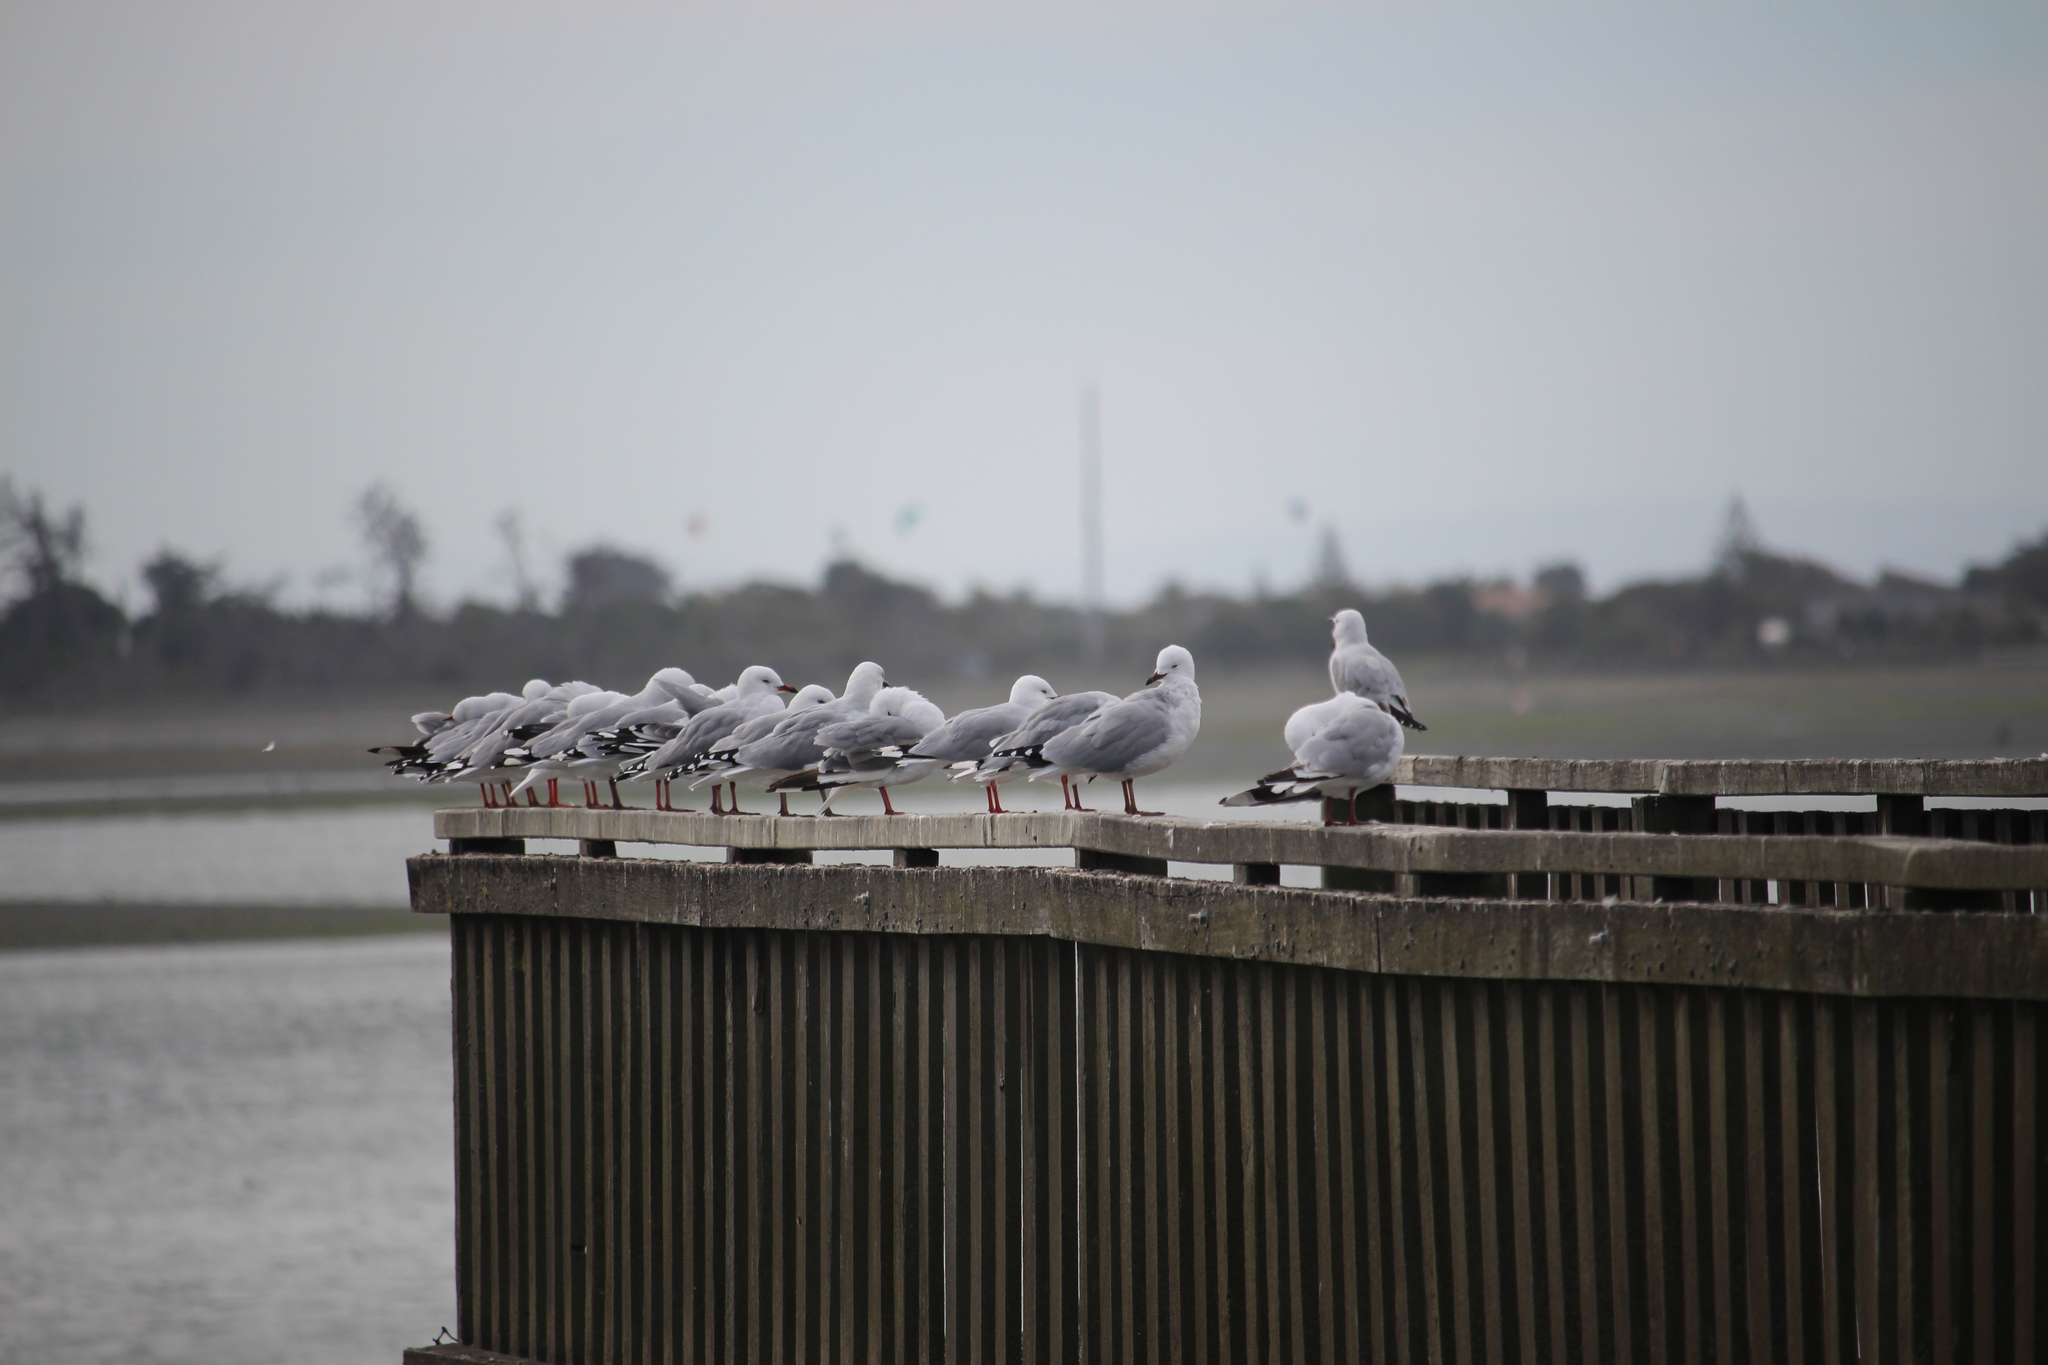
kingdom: Animalia
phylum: Chordata
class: Aves
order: Charadriiformes
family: Laridae
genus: Chroicocephalus
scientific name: Chroicocephalus novaehollandiae
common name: Silver gull
